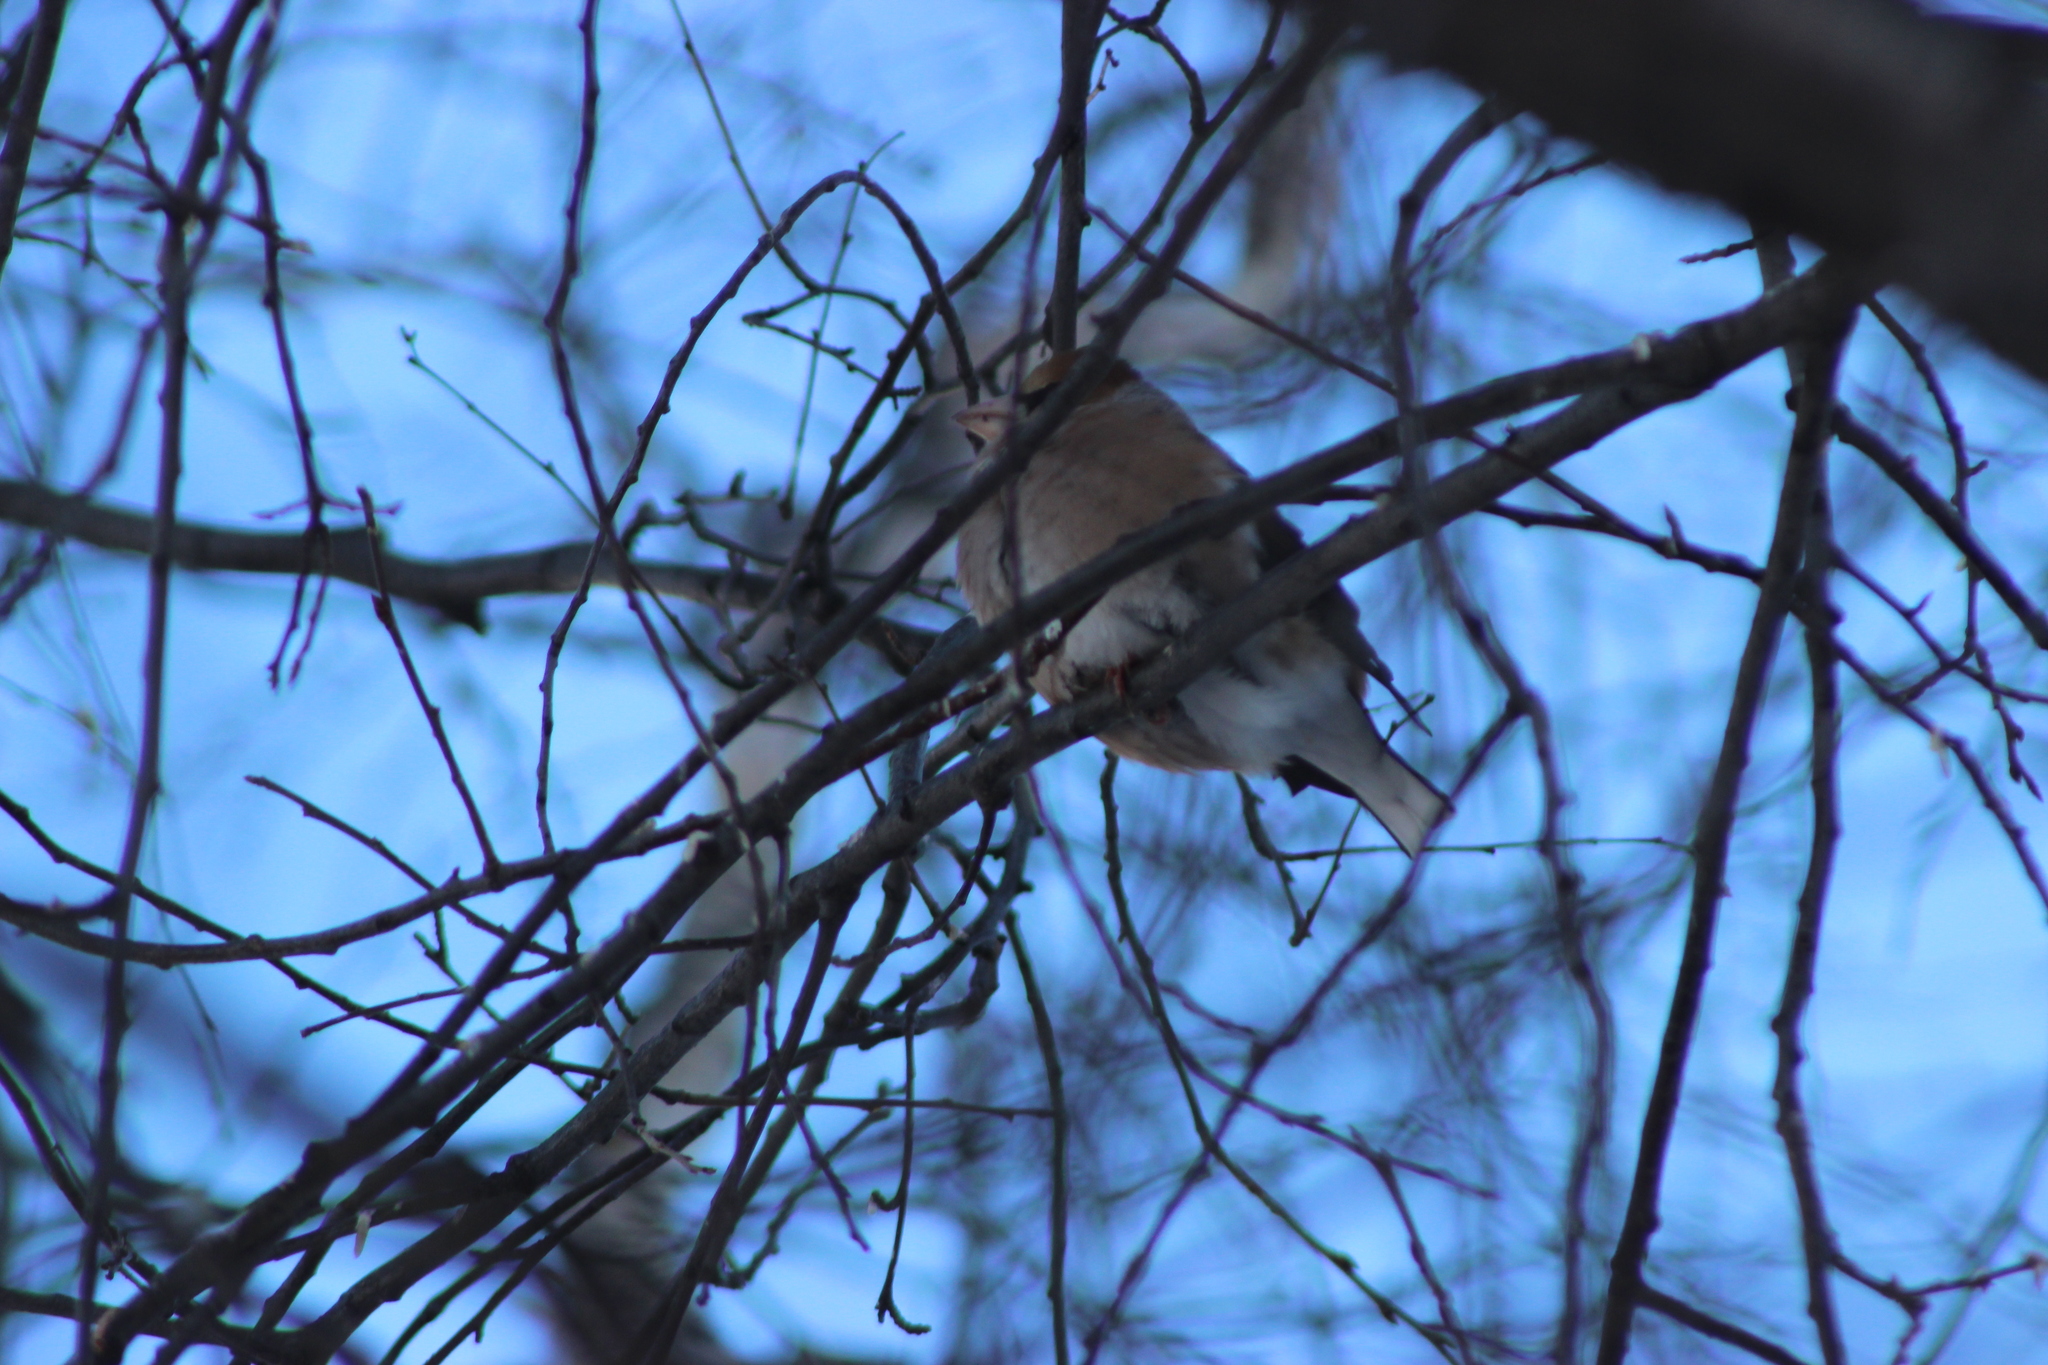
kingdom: Animalia
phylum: Chordata
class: Aves
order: Passeriformes
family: Fringillidae
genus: Coccothraustes
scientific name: Coccothraustes coccothraustes
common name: Hawfinch
